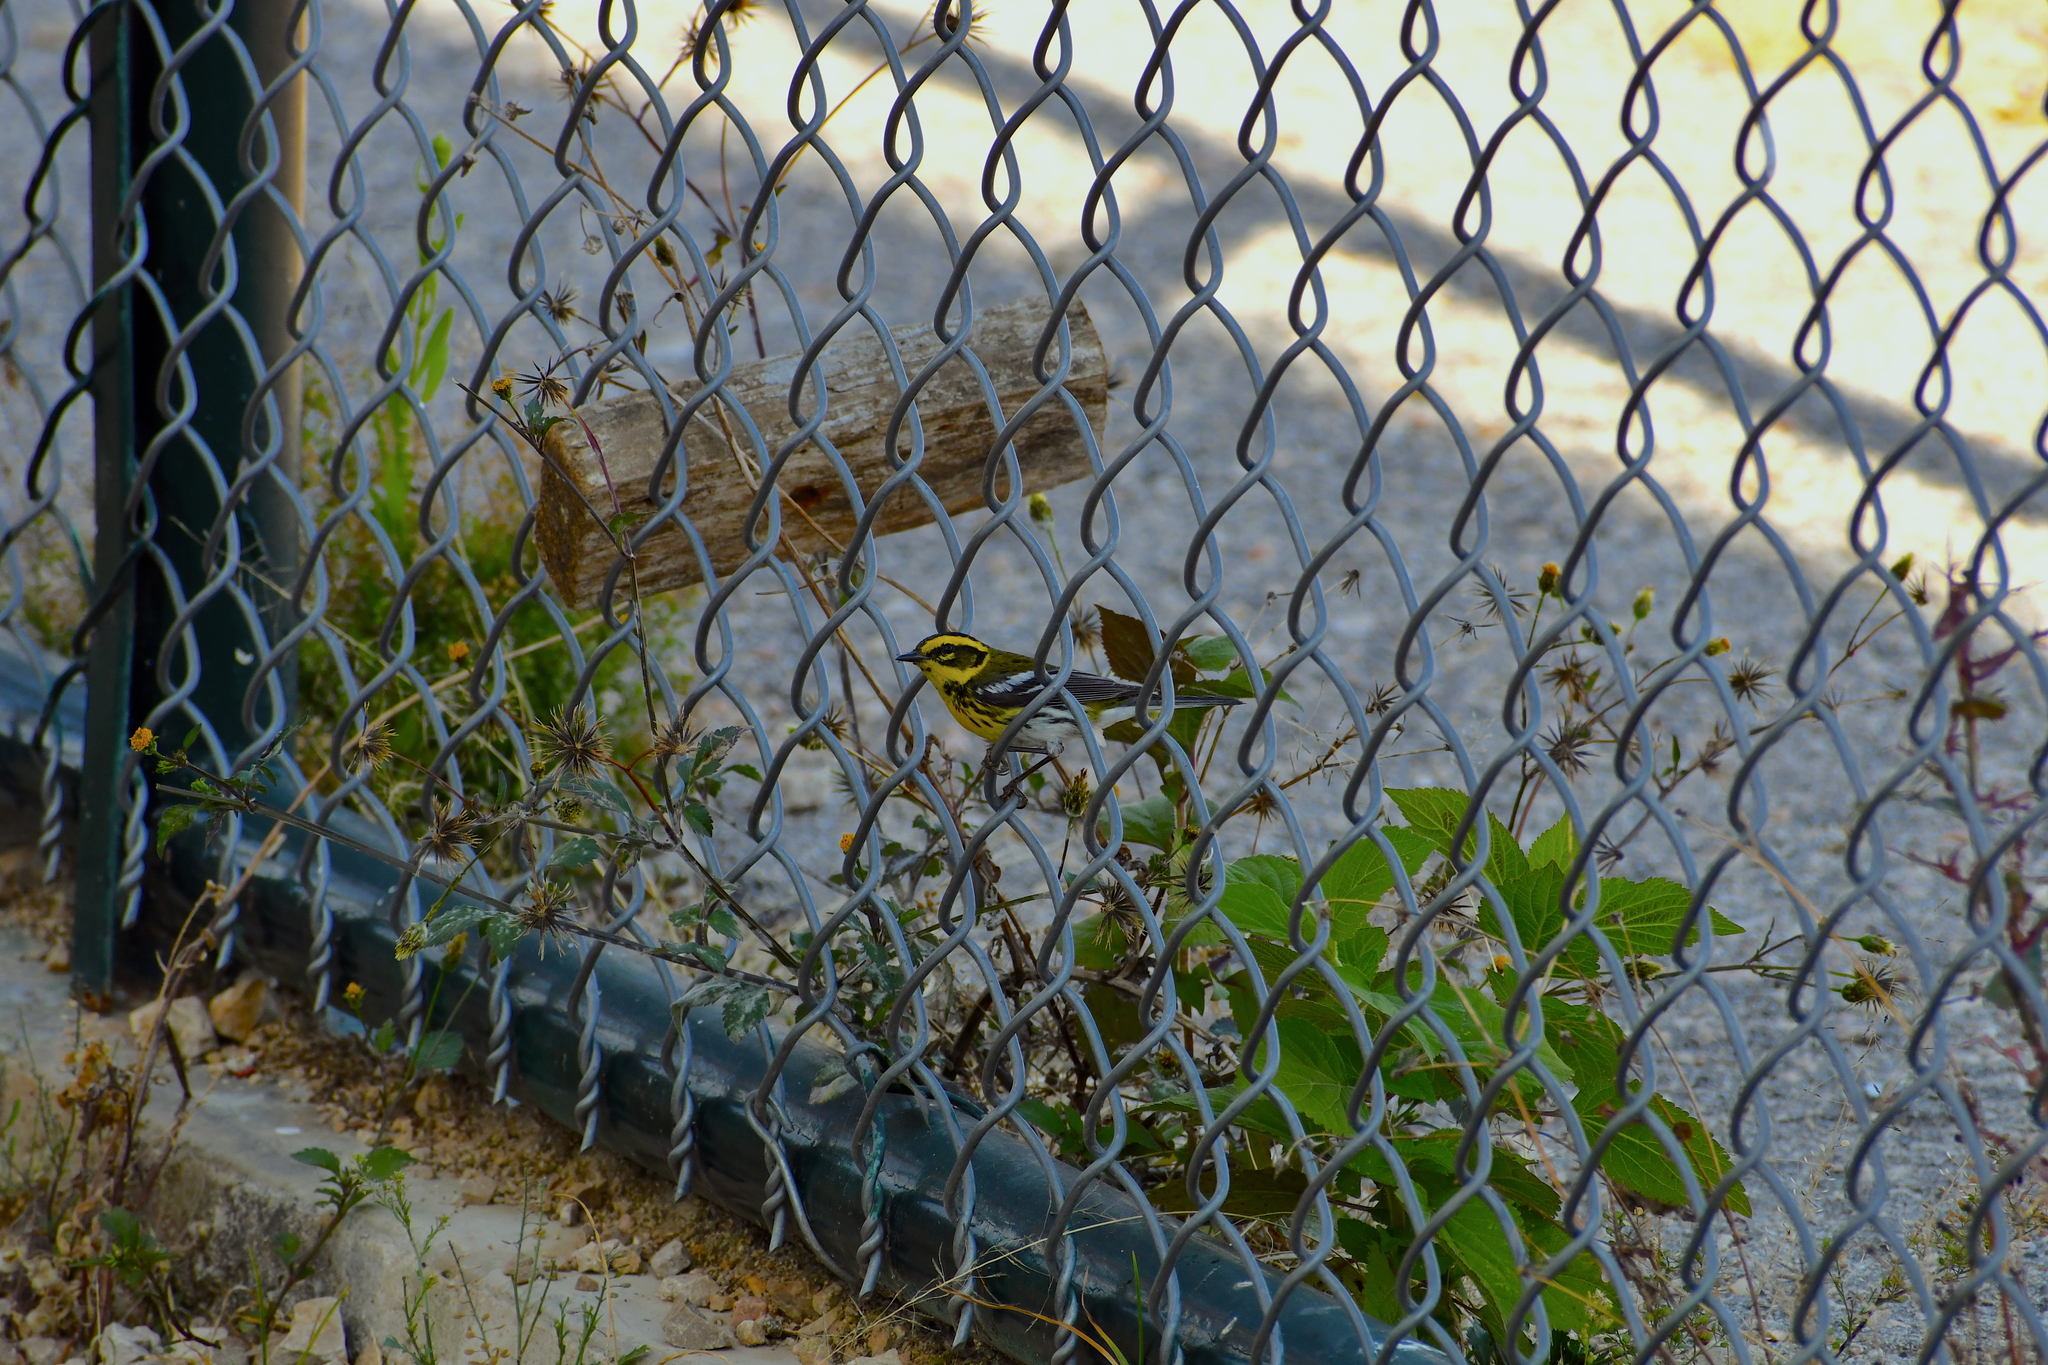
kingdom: Animalia
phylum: Chordata
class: Aves
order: Passeriformes
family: Parulidae
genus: Setophaga
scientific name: Setophaga townsendi
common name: Townsend's warbler
